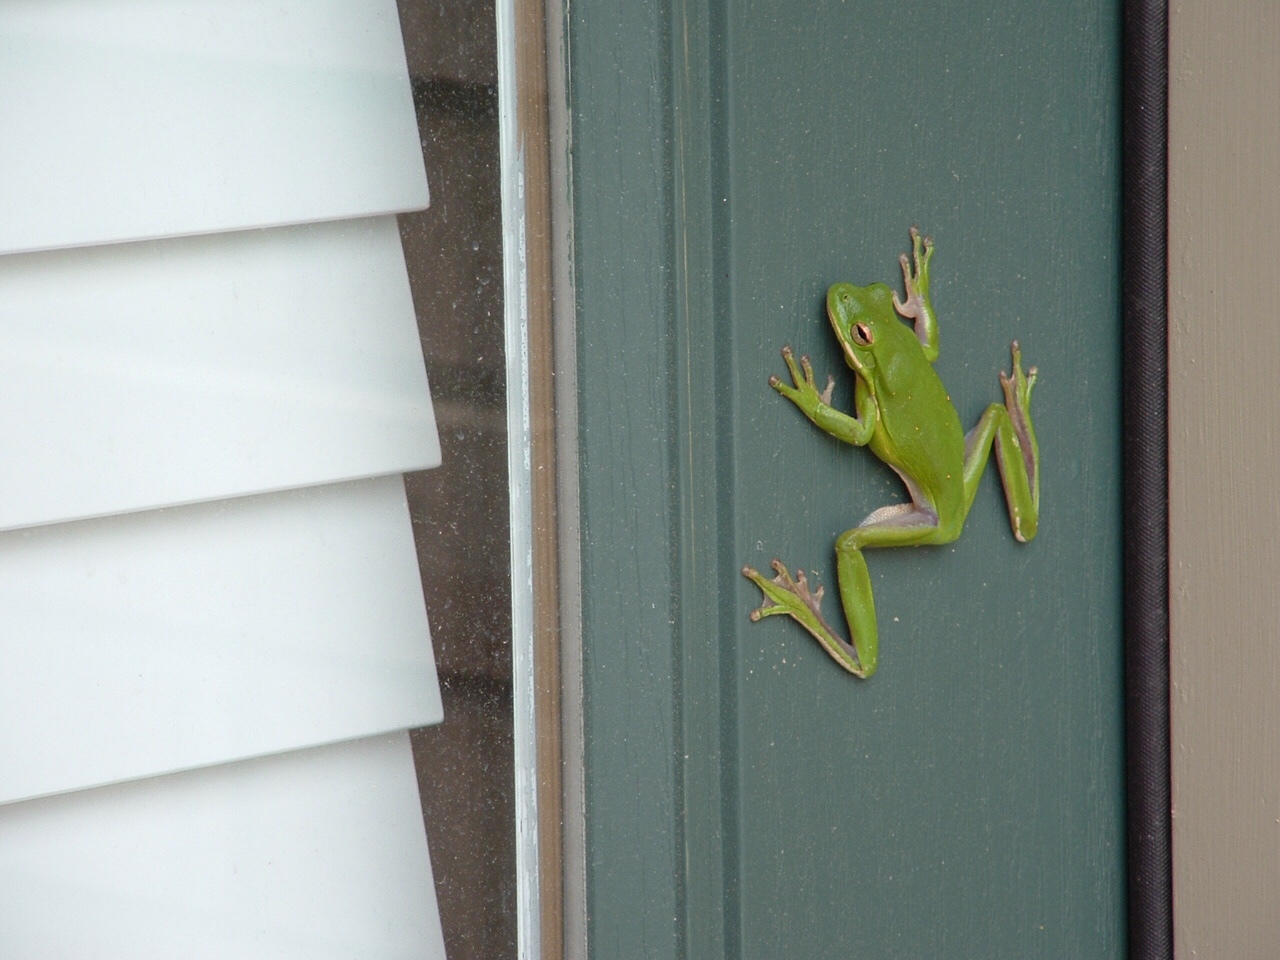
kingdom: Animalia
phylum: Chordata
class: Amphibia
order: Anura
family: Hylidae
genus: Dryophytes
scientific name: Dryophytes cinereus
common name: Green treefrog
